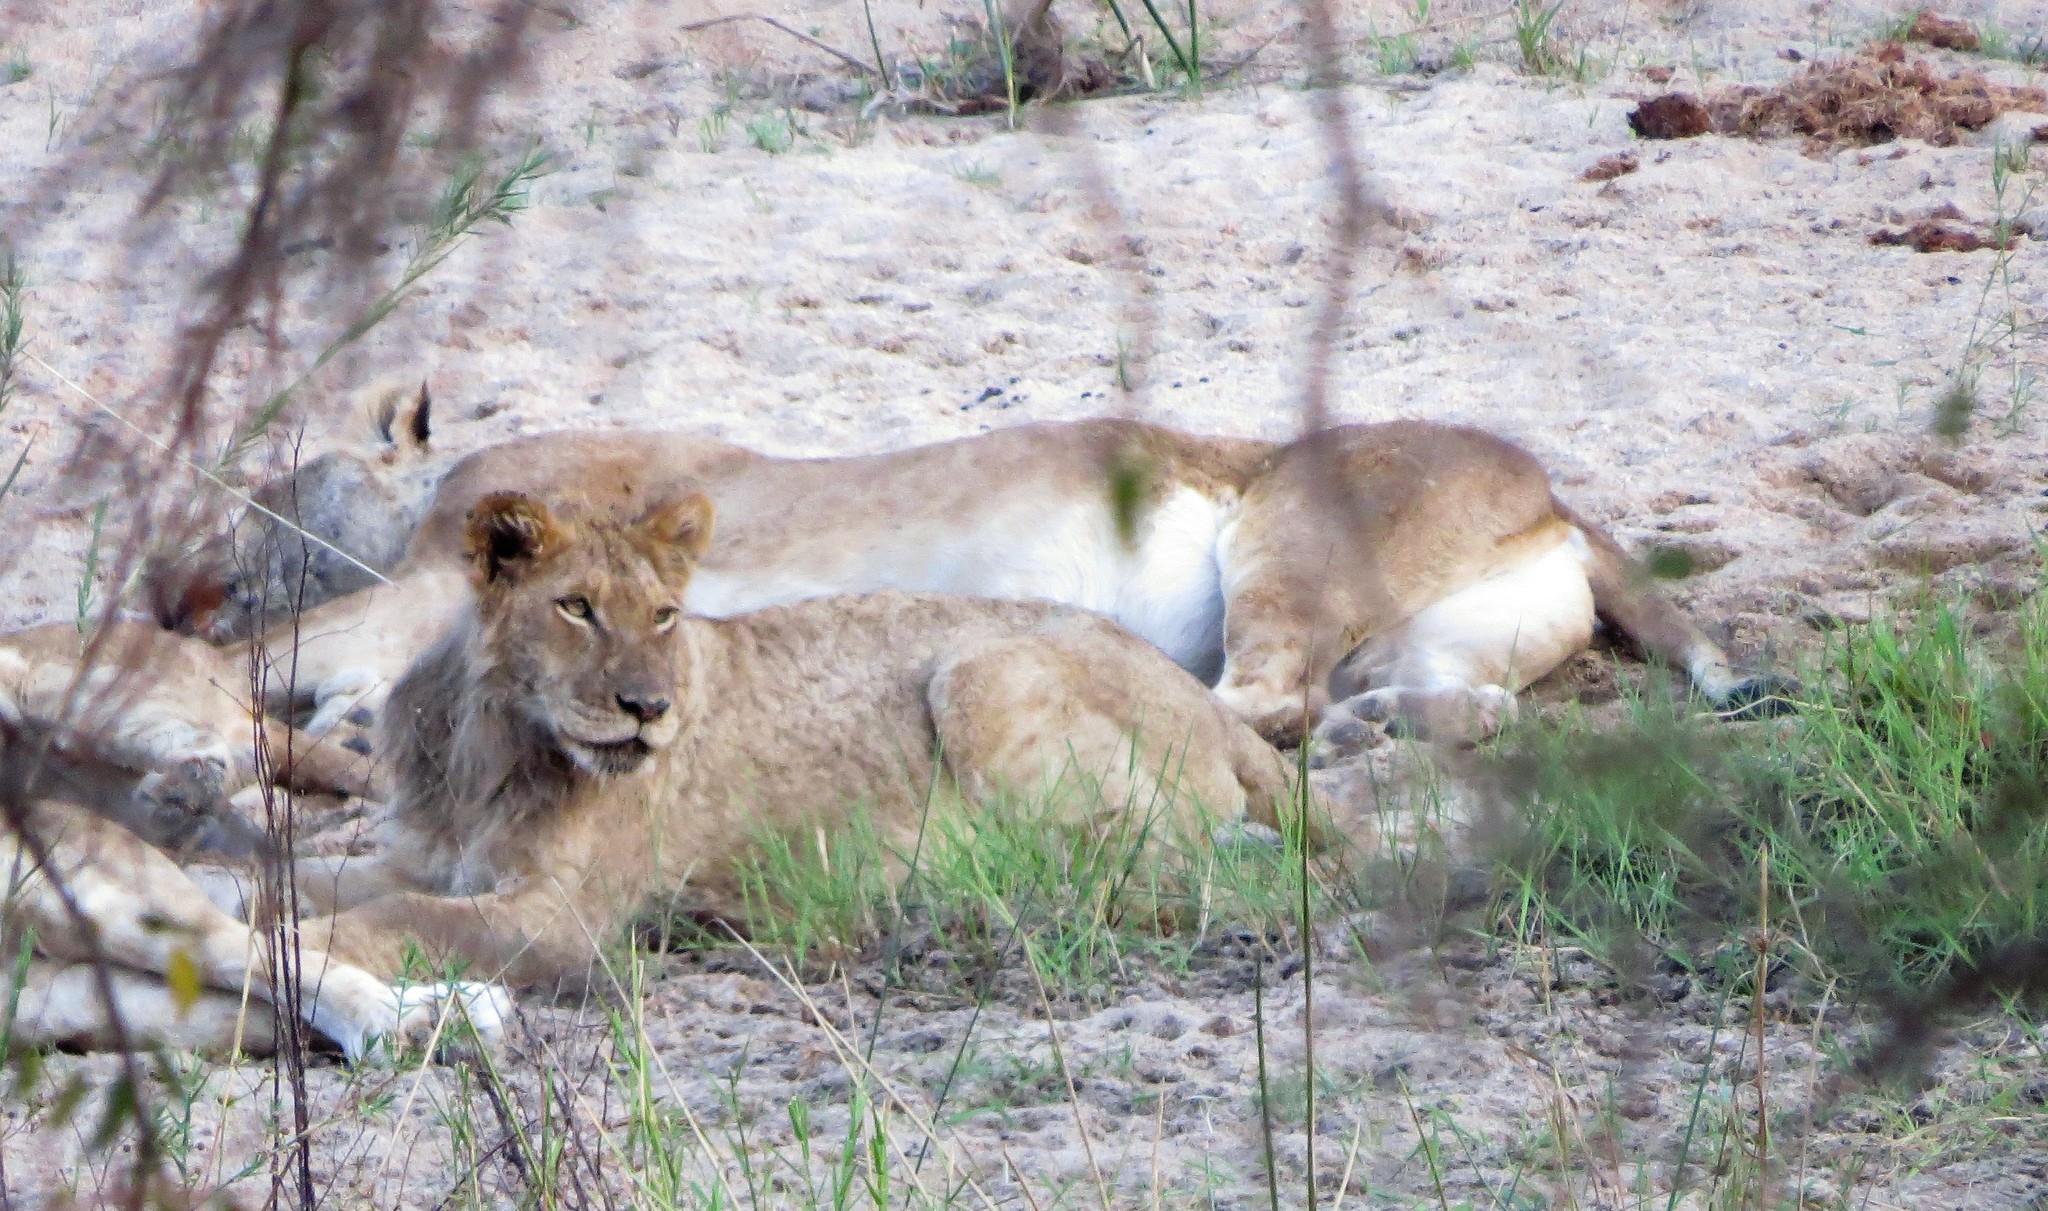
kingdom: Animalia
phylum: Chordata
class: Mammalia
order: Carnivora
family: Felidae
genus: Panthera
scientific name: Panthera leo
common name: Lion
